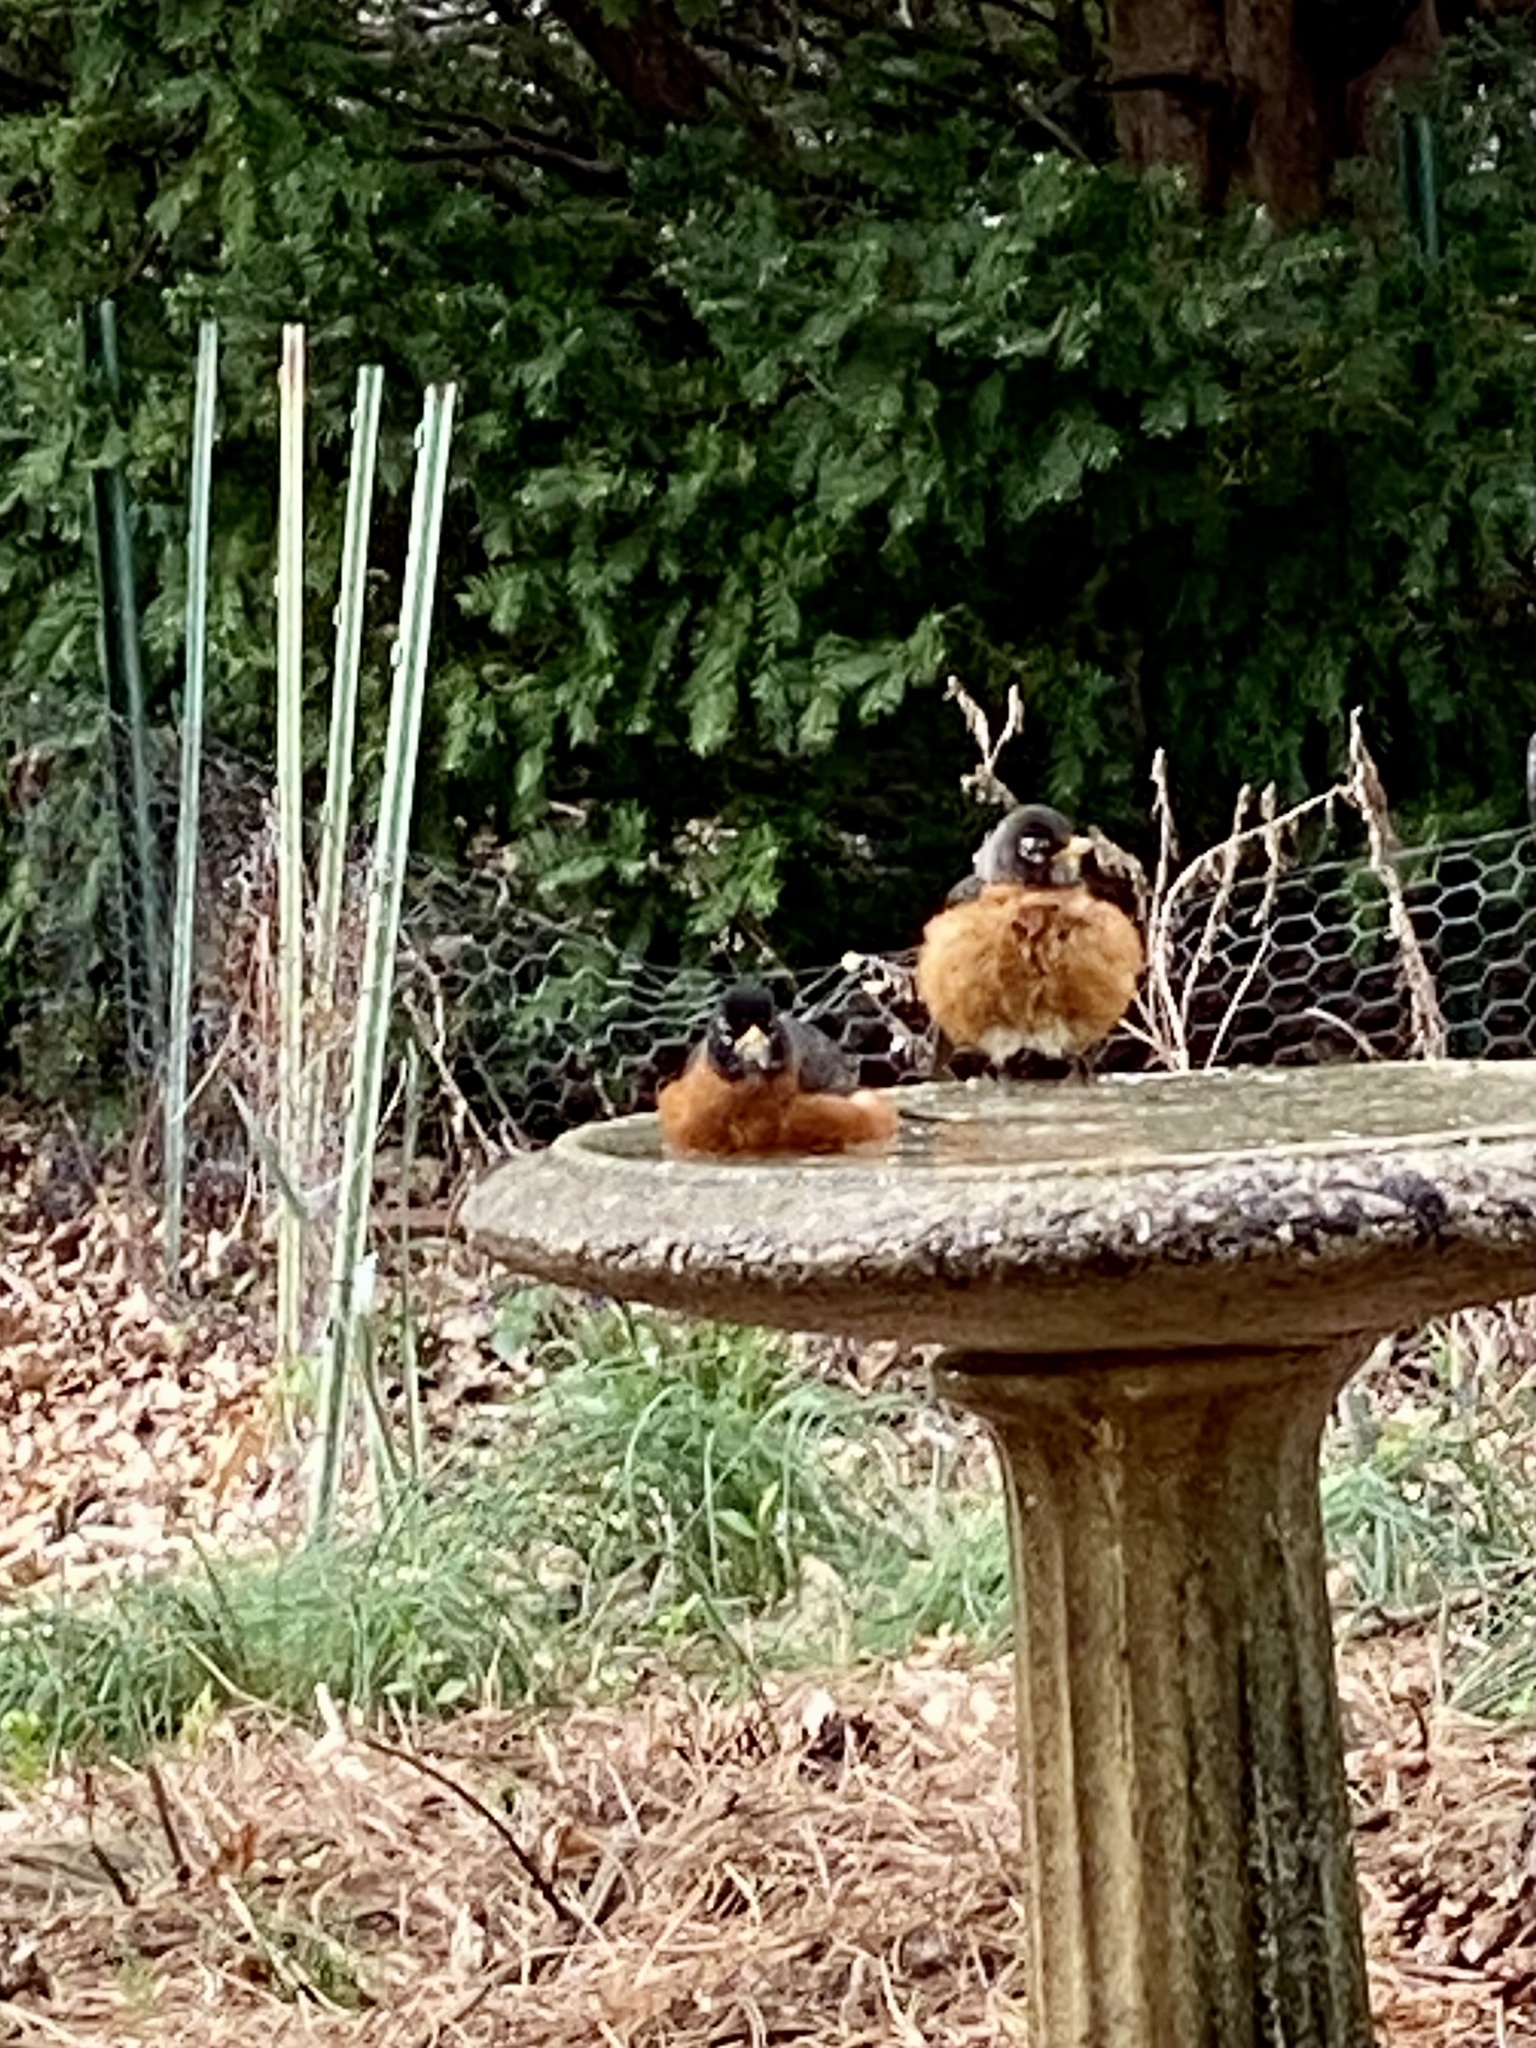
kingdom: Animalia
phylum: Chordata
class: Aves
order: Passeriformes
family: Turdidae
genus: Turdus
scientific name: Turdus migratorius
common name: American robin
